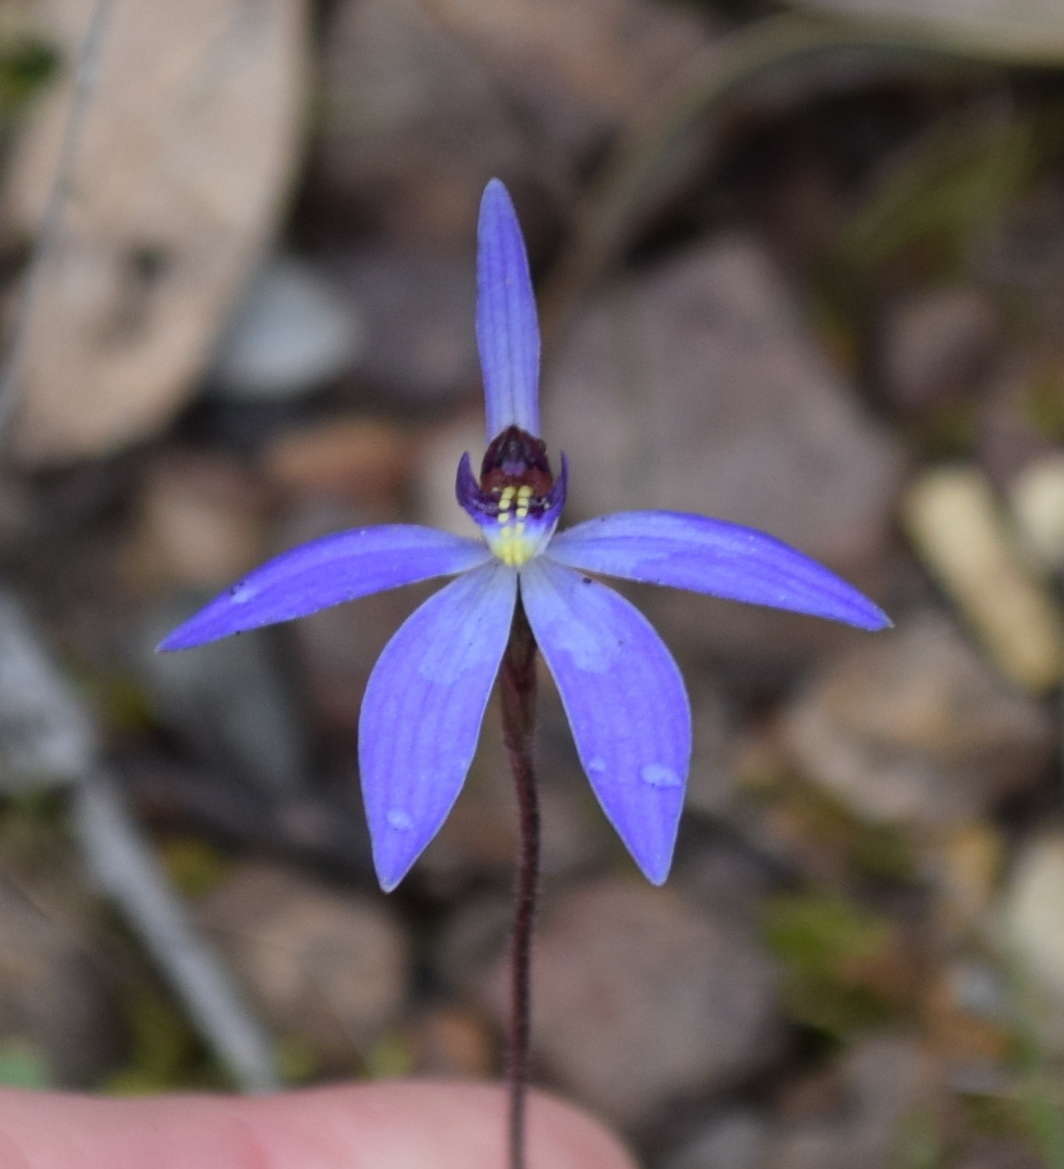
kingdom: Plantae
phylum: Tracheophyta
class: Liliopsida
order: Asparagales
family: Orchidaceae
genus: Caladenia
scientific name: Caladenia caerulea
